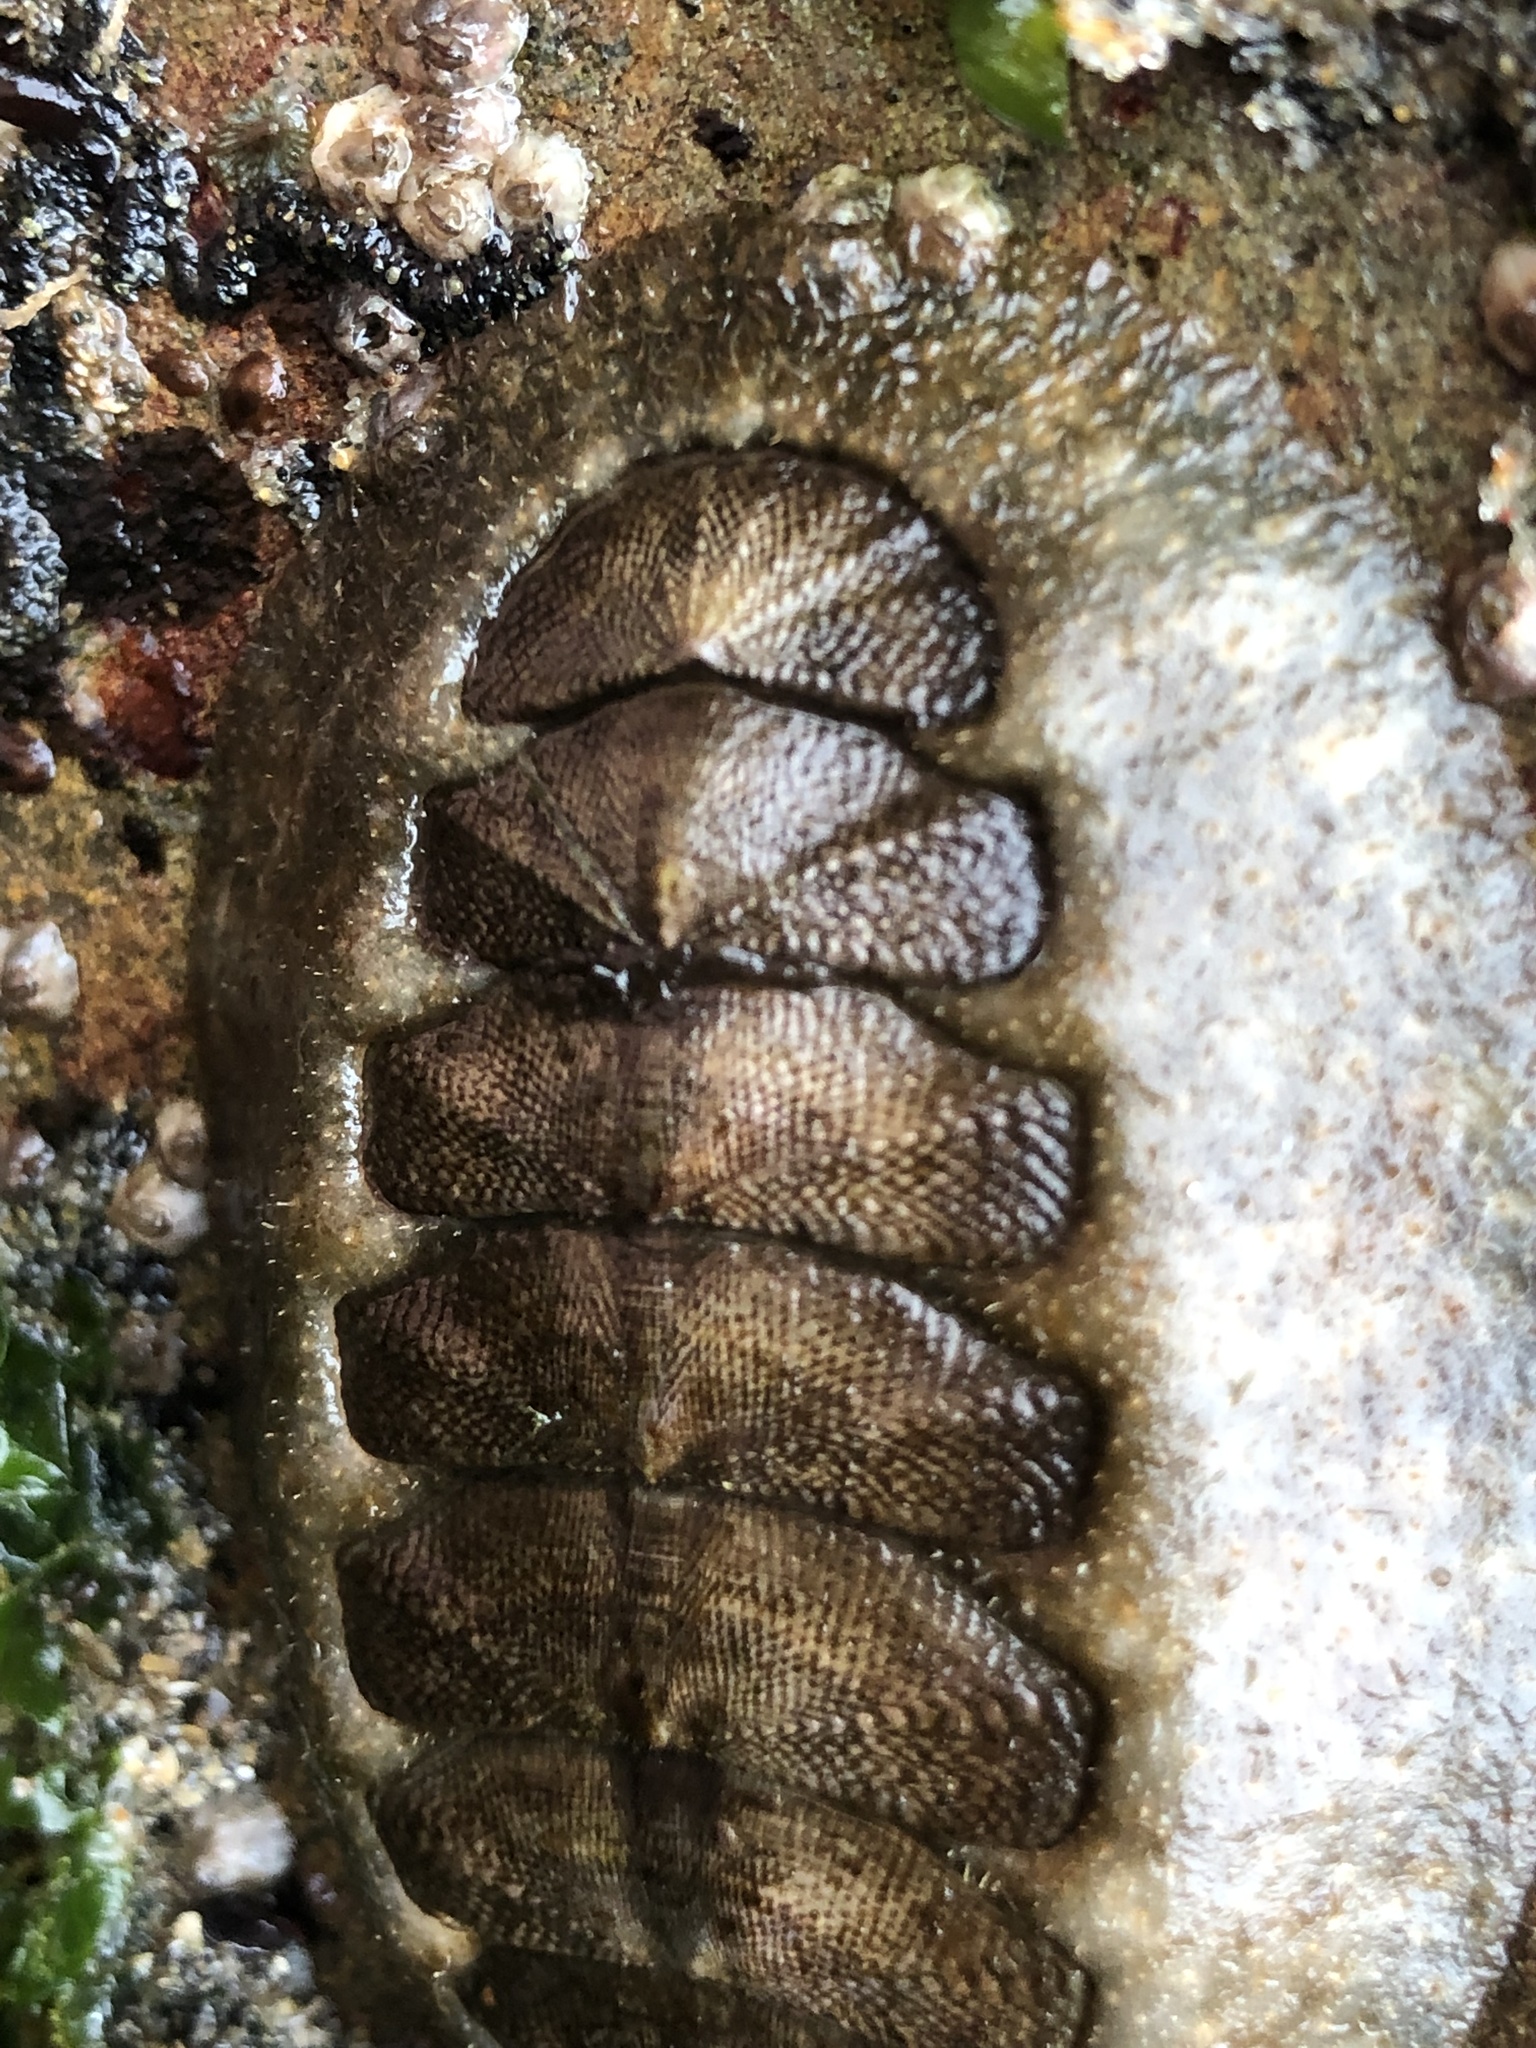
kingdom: Animalia
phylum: Mollusca
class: Polyplacophora
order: Chitonida
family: Mopaliidae
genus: Mopalia
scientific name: Mopalia hindsii
